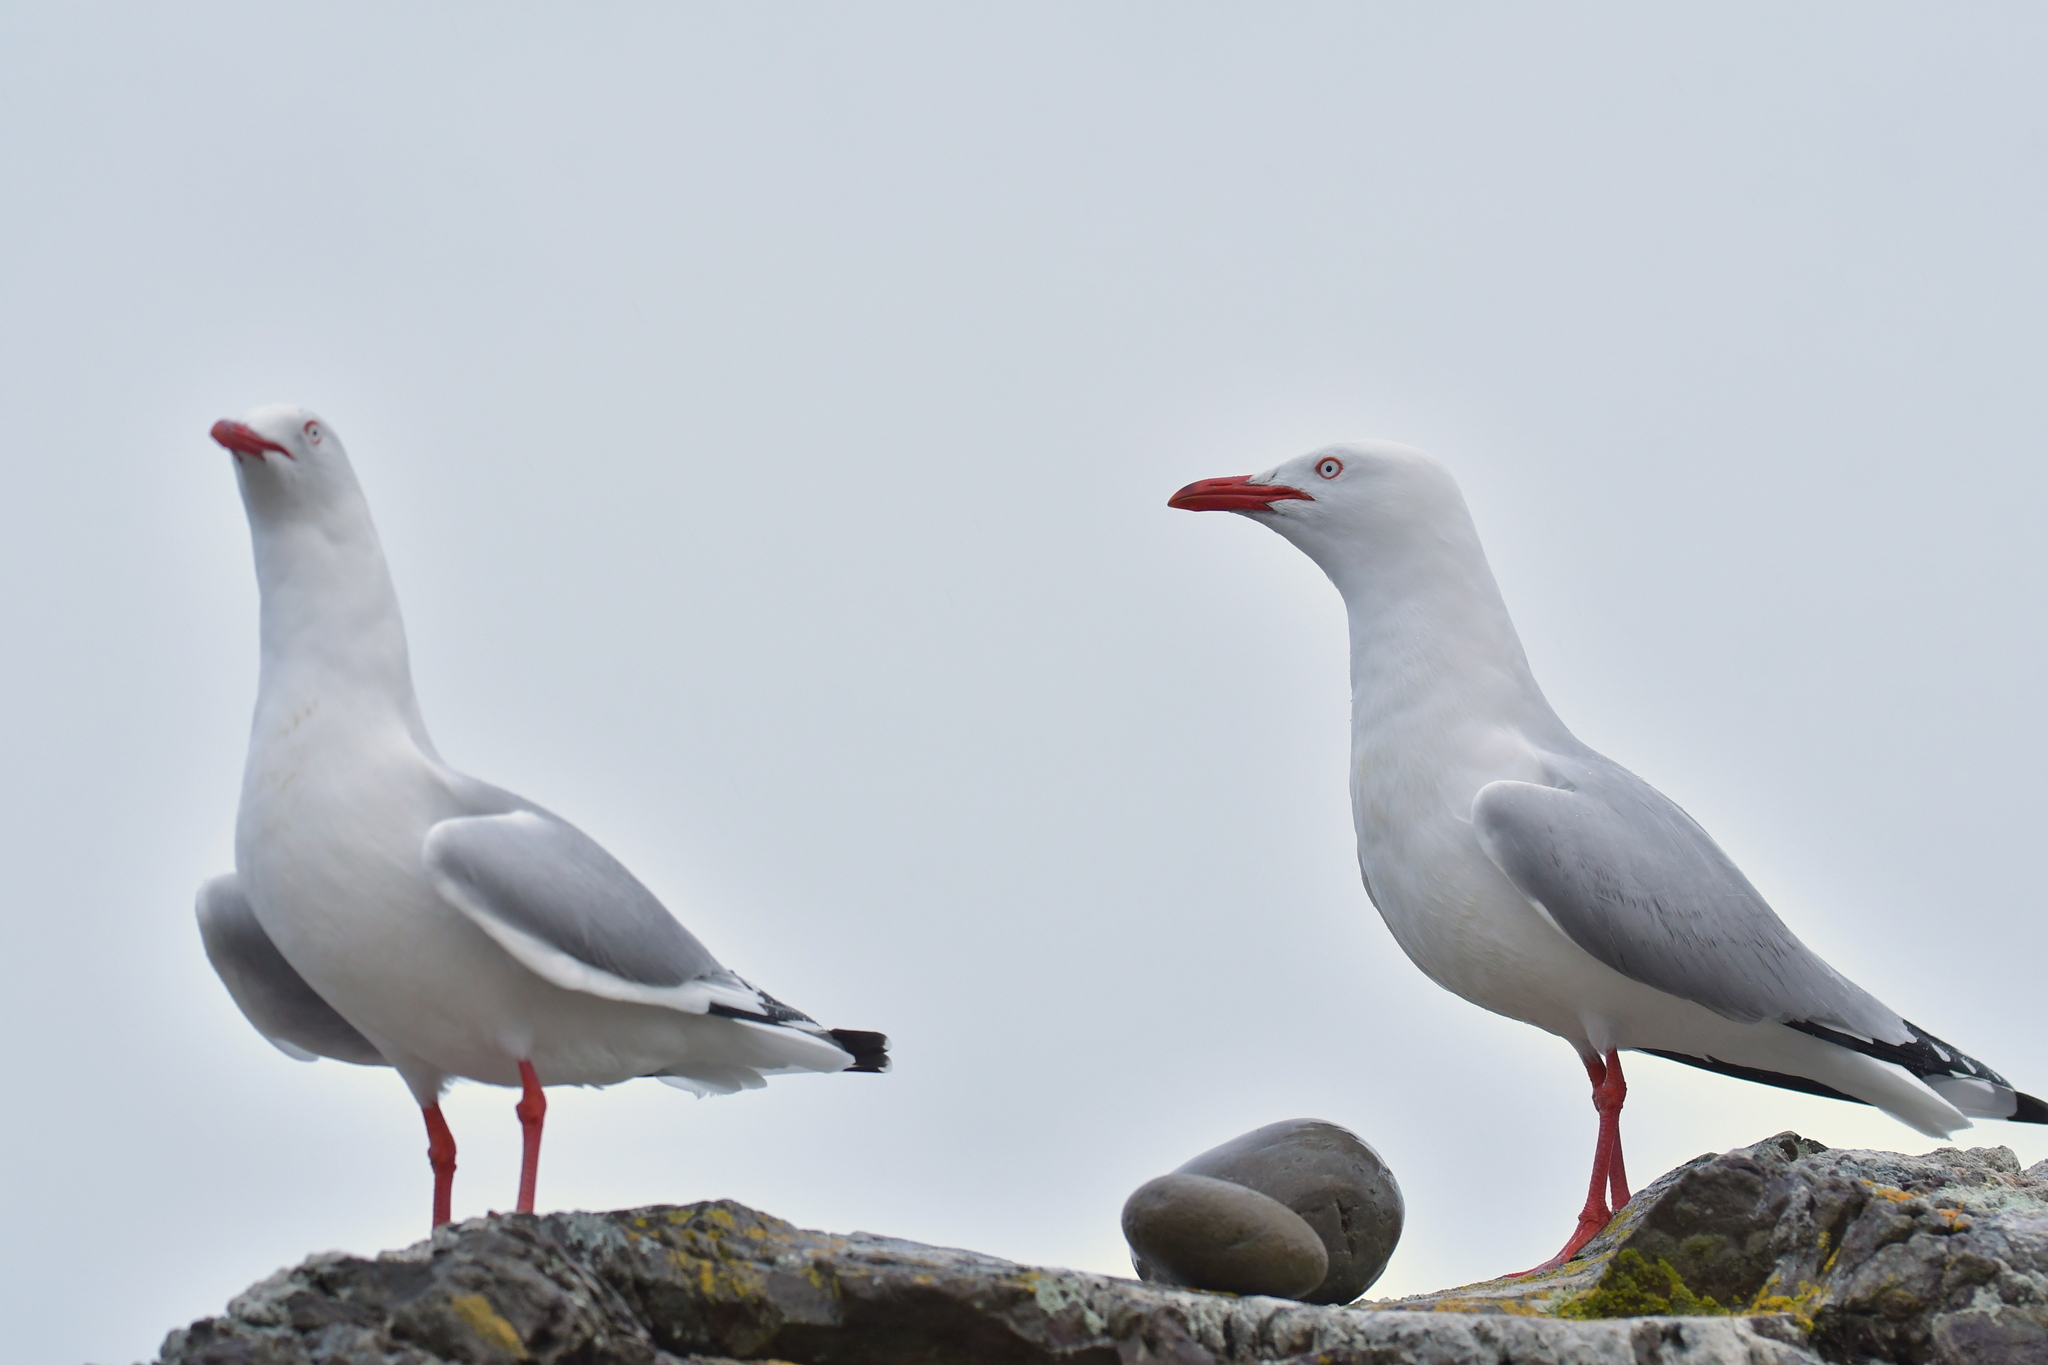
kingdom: Animalia
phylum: Chordata
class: Aves
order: Charadriiformes
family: Laridae
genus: Chroicocephalus
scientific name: Chroicocephalus novaehollandiae
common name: Silver gull
